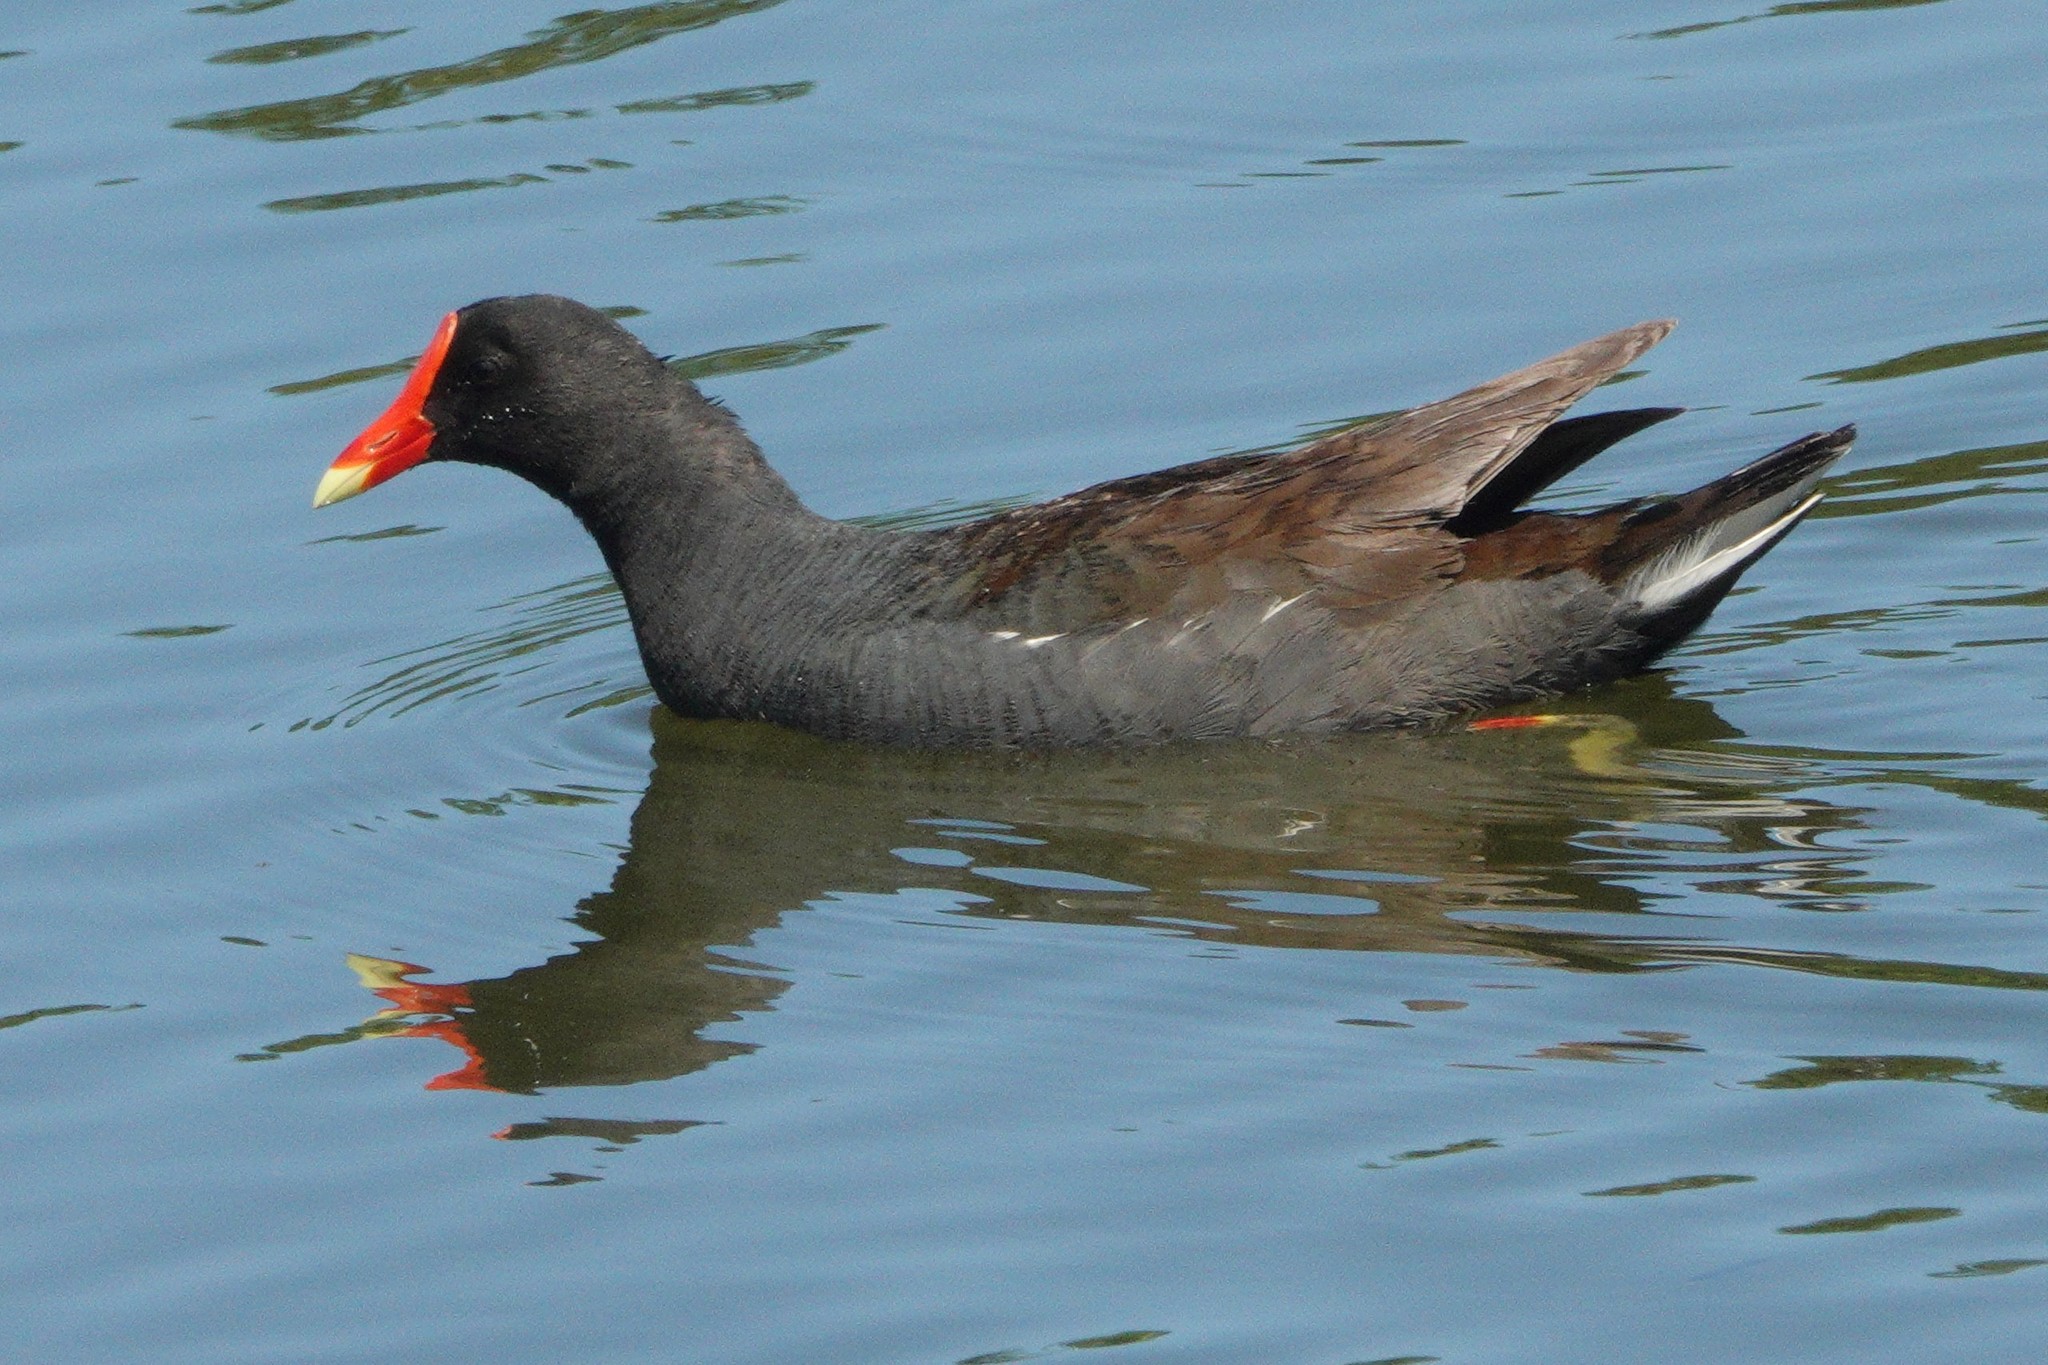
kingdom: Animalia
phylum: Chordata
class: Aves
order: Gruiformes
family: Rallidae
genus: Gallinula
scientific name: Gallinula chloropus
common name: Common moorhen
